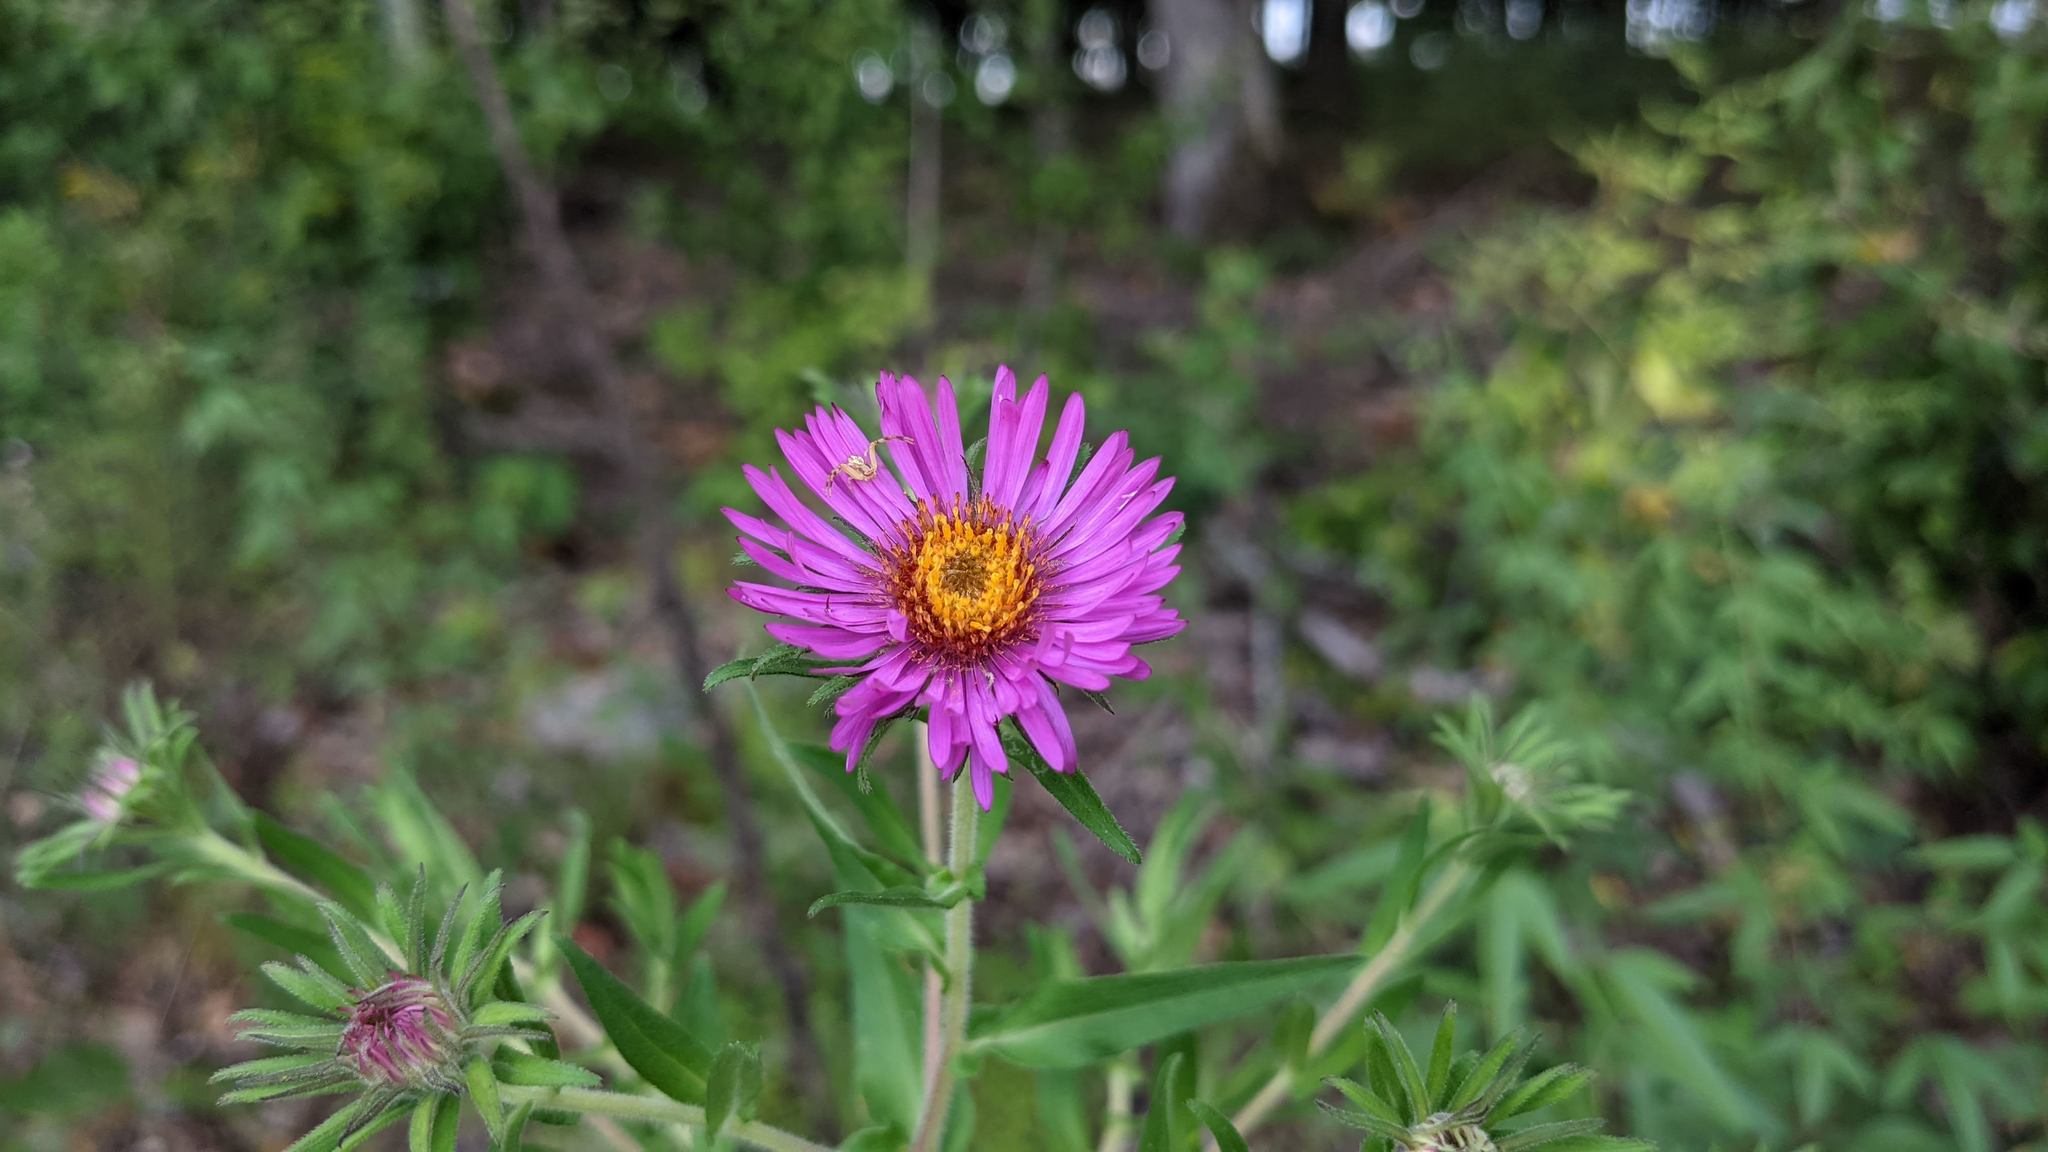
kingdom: Plantae
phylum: Tracheophyta
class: Magnoliopsida
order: Asterales
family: Asteraceae
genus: Symphyotrichum
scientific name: Symphyotrichum novae-angliae
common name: Michaelmas daisy
